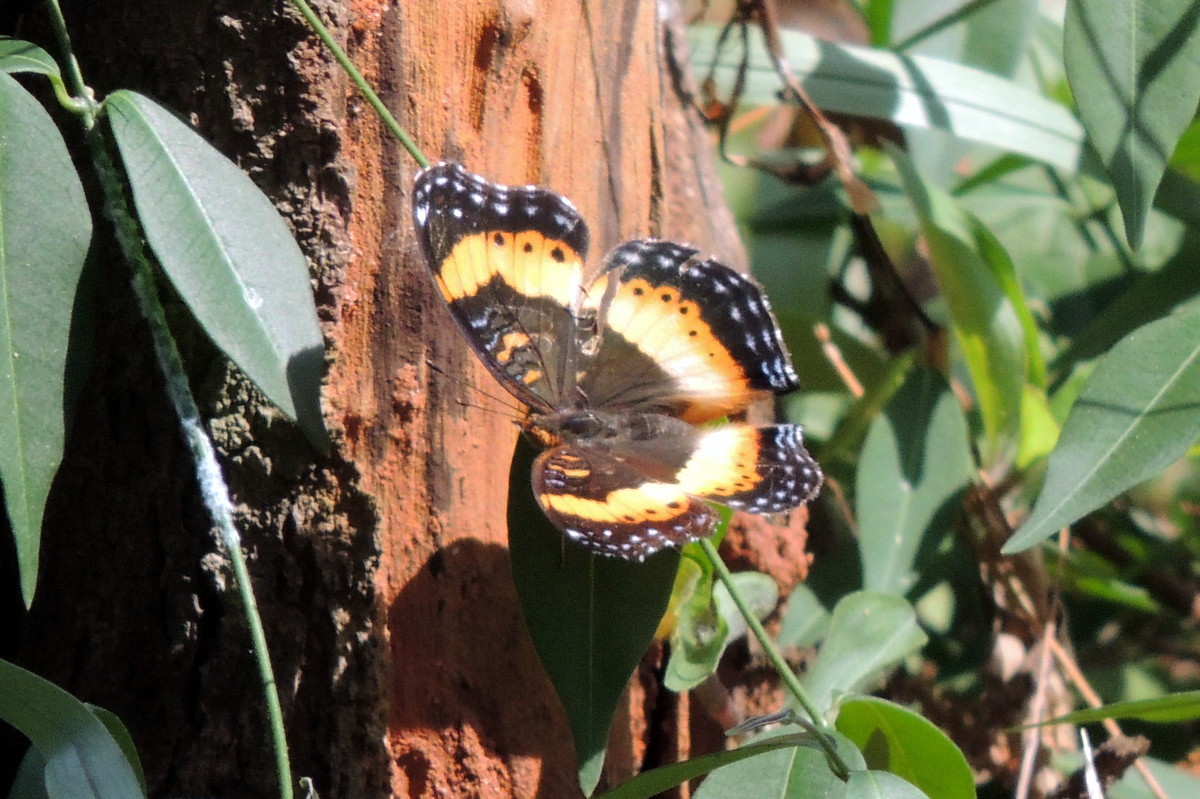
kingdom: Animalia
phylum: Arthropoda
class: Insecta
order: Lepidoptera
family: Nymphalidae
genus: Precis
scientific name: Precis pelarga
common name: Fashion commodore
